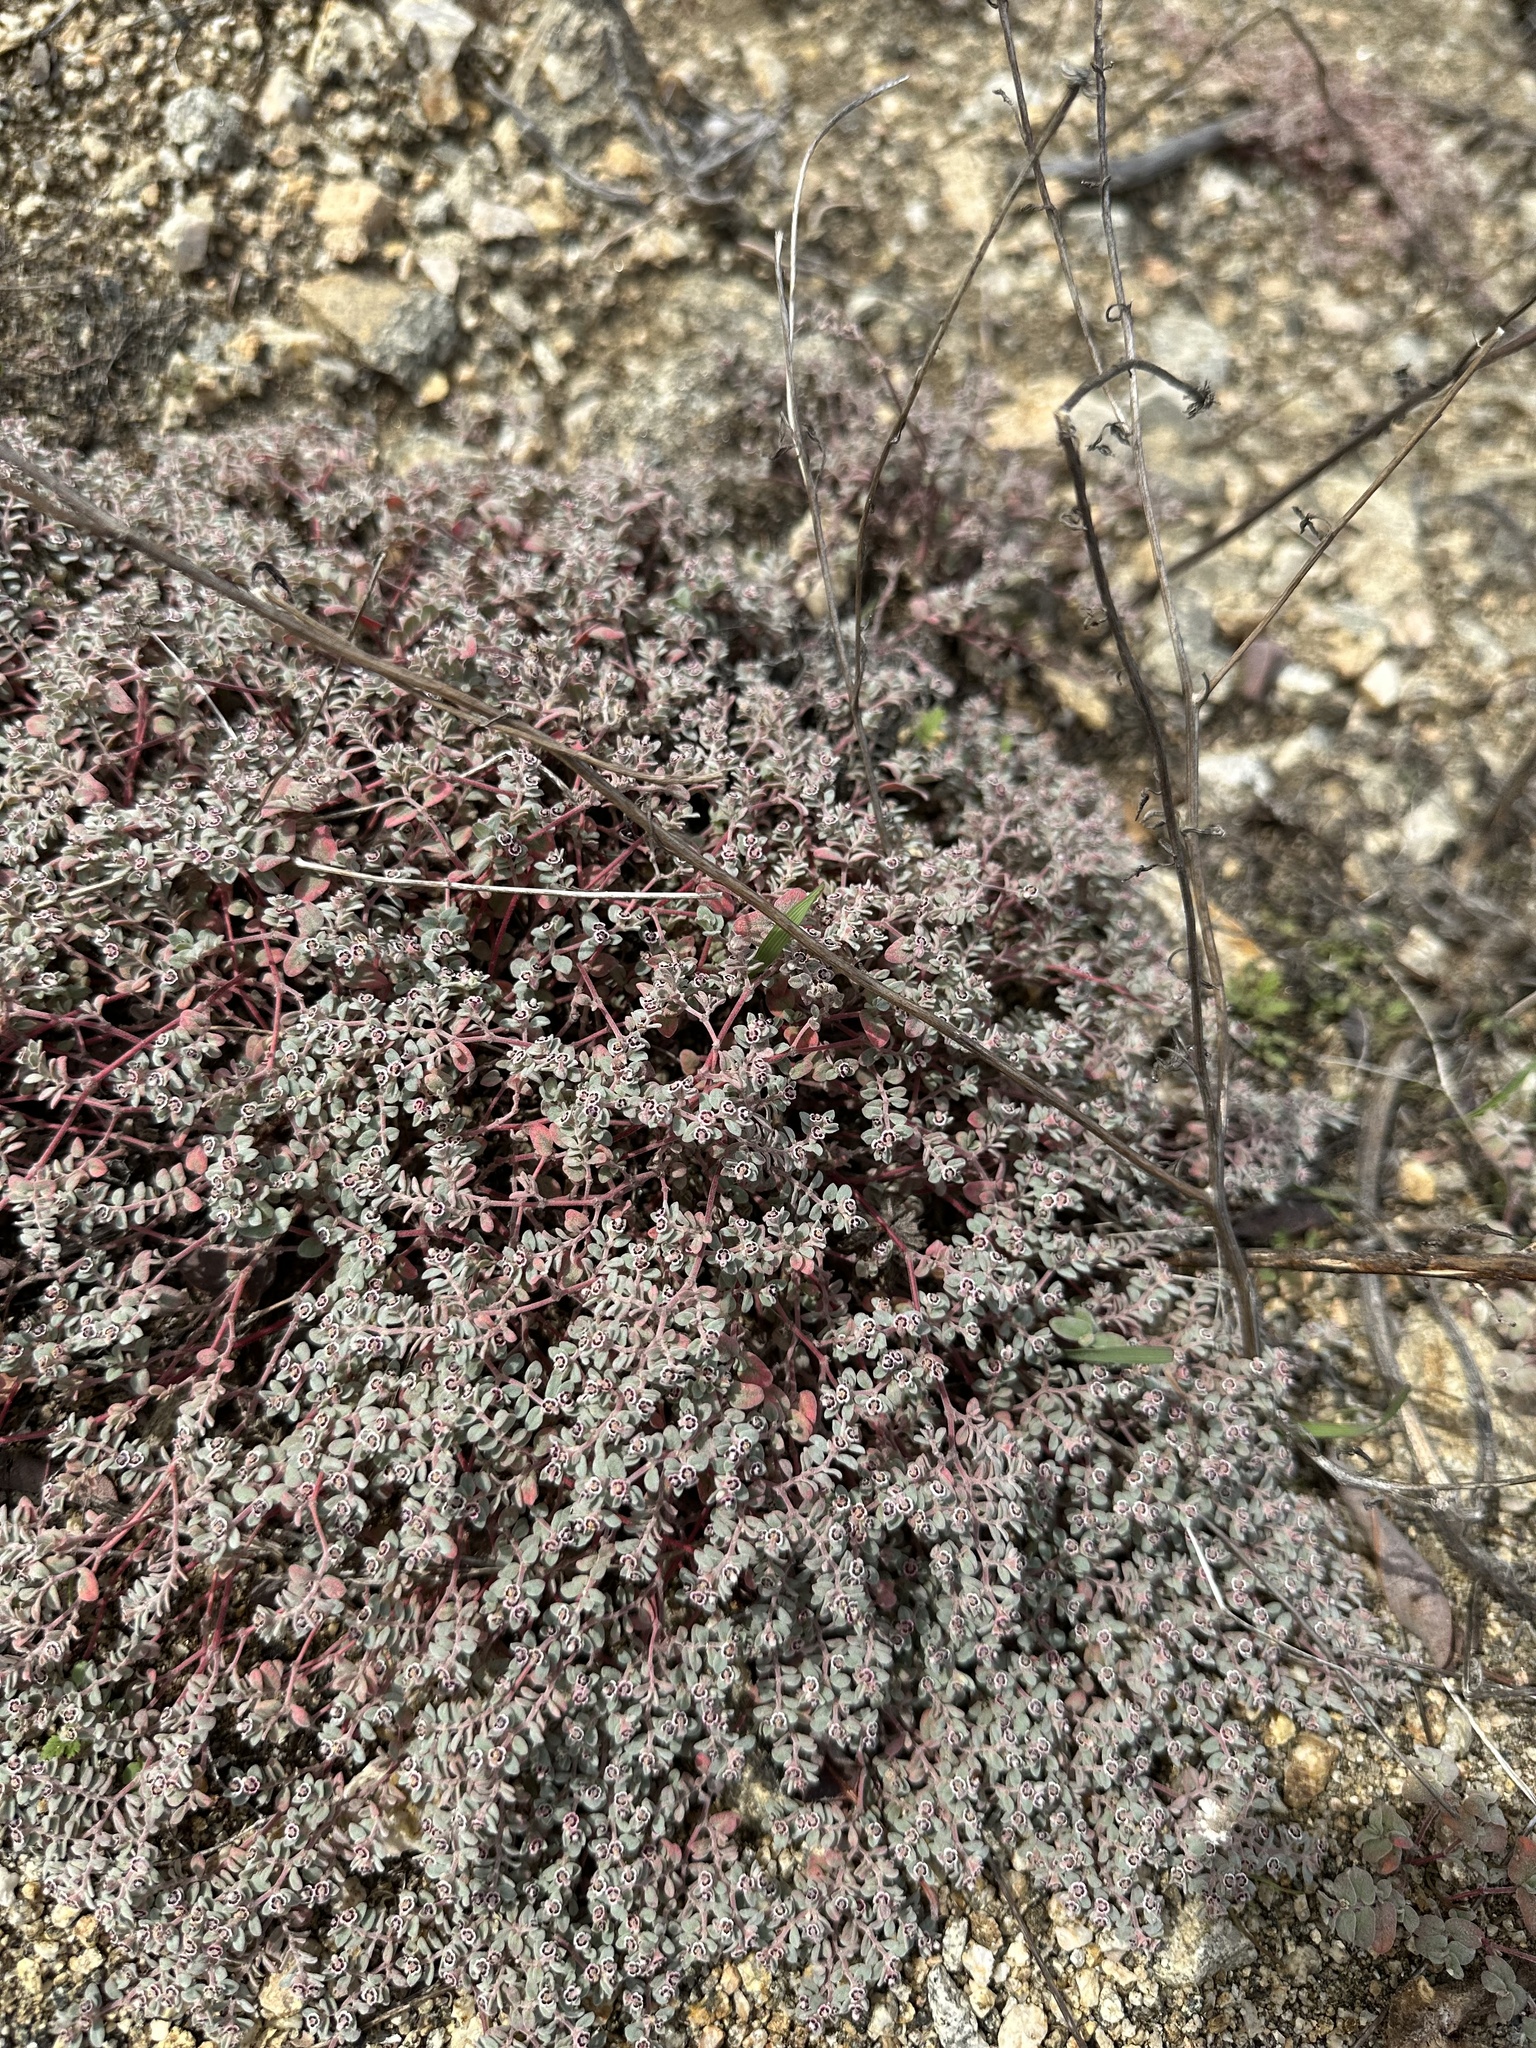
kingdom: Plantae
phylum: Tracheophyta
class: Magnoliopsida
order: Malpighiales
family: Euphorbiaceae
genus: Euphorbia
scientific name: Euphorbia melanadenia
